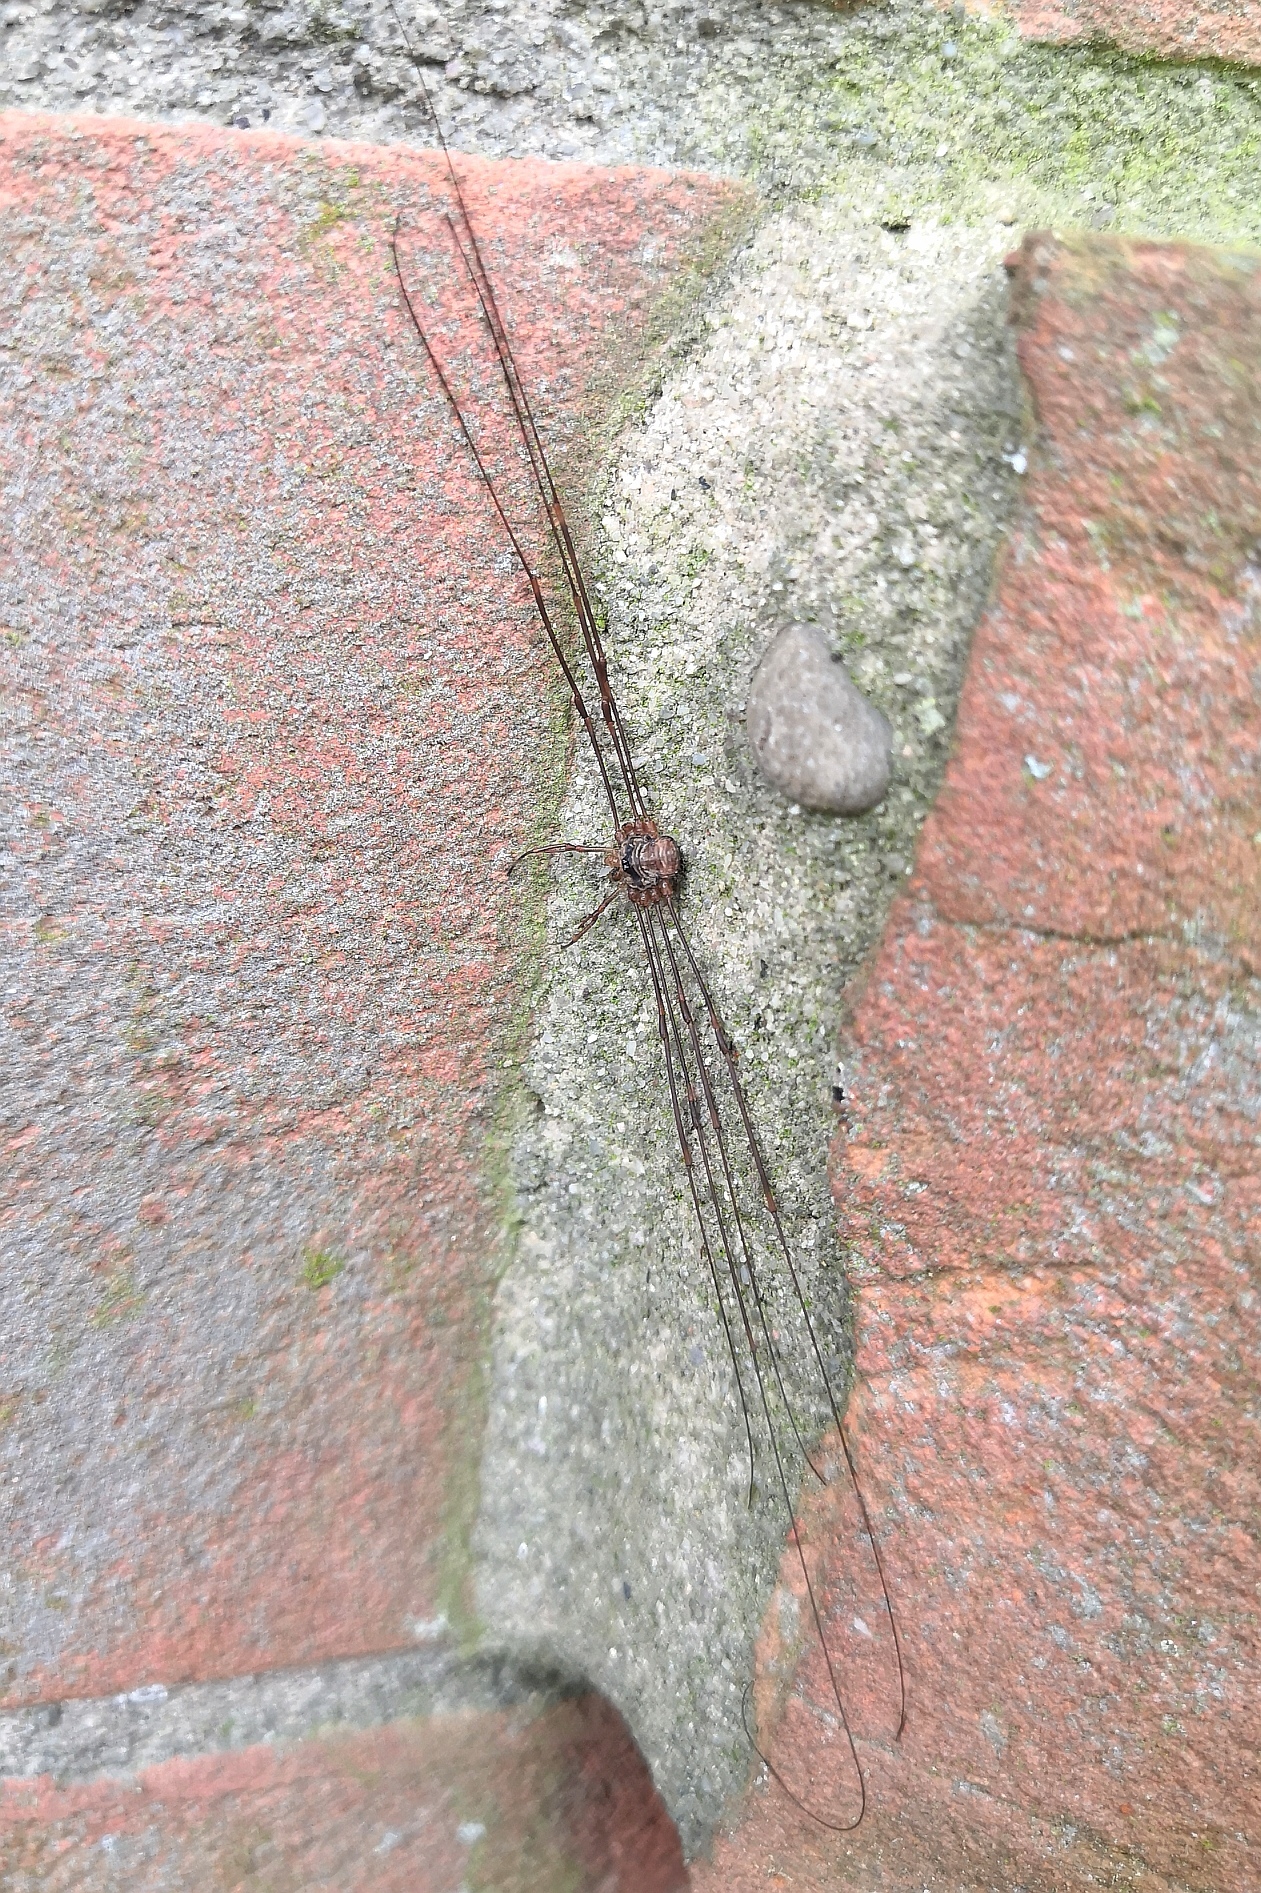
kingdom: Animalia
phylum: Arthropoda
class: Arachnida
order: Opiliones
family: Phalangiidae
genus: Dicranopalpus
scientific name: Dicranopalpus ramosus
